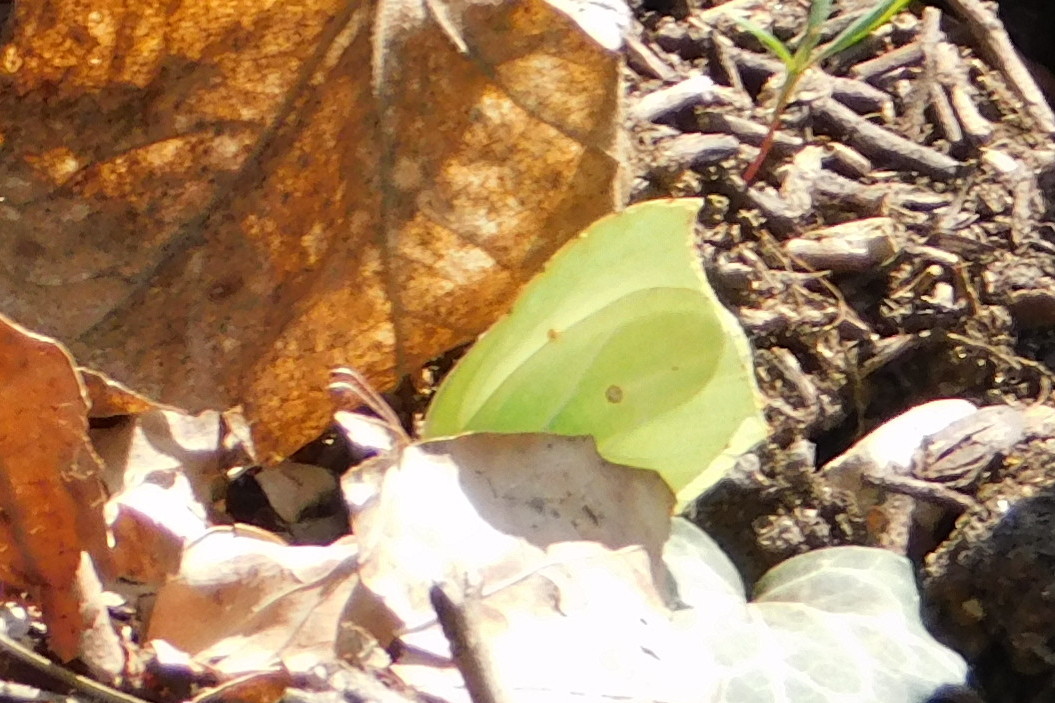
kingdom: Animalia
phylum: Arthropoda
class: Insecta
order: Lepidoptera
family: Pieridae
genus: Gonepteryx
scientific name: Gonepteryx rhamni
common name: Brimstone
